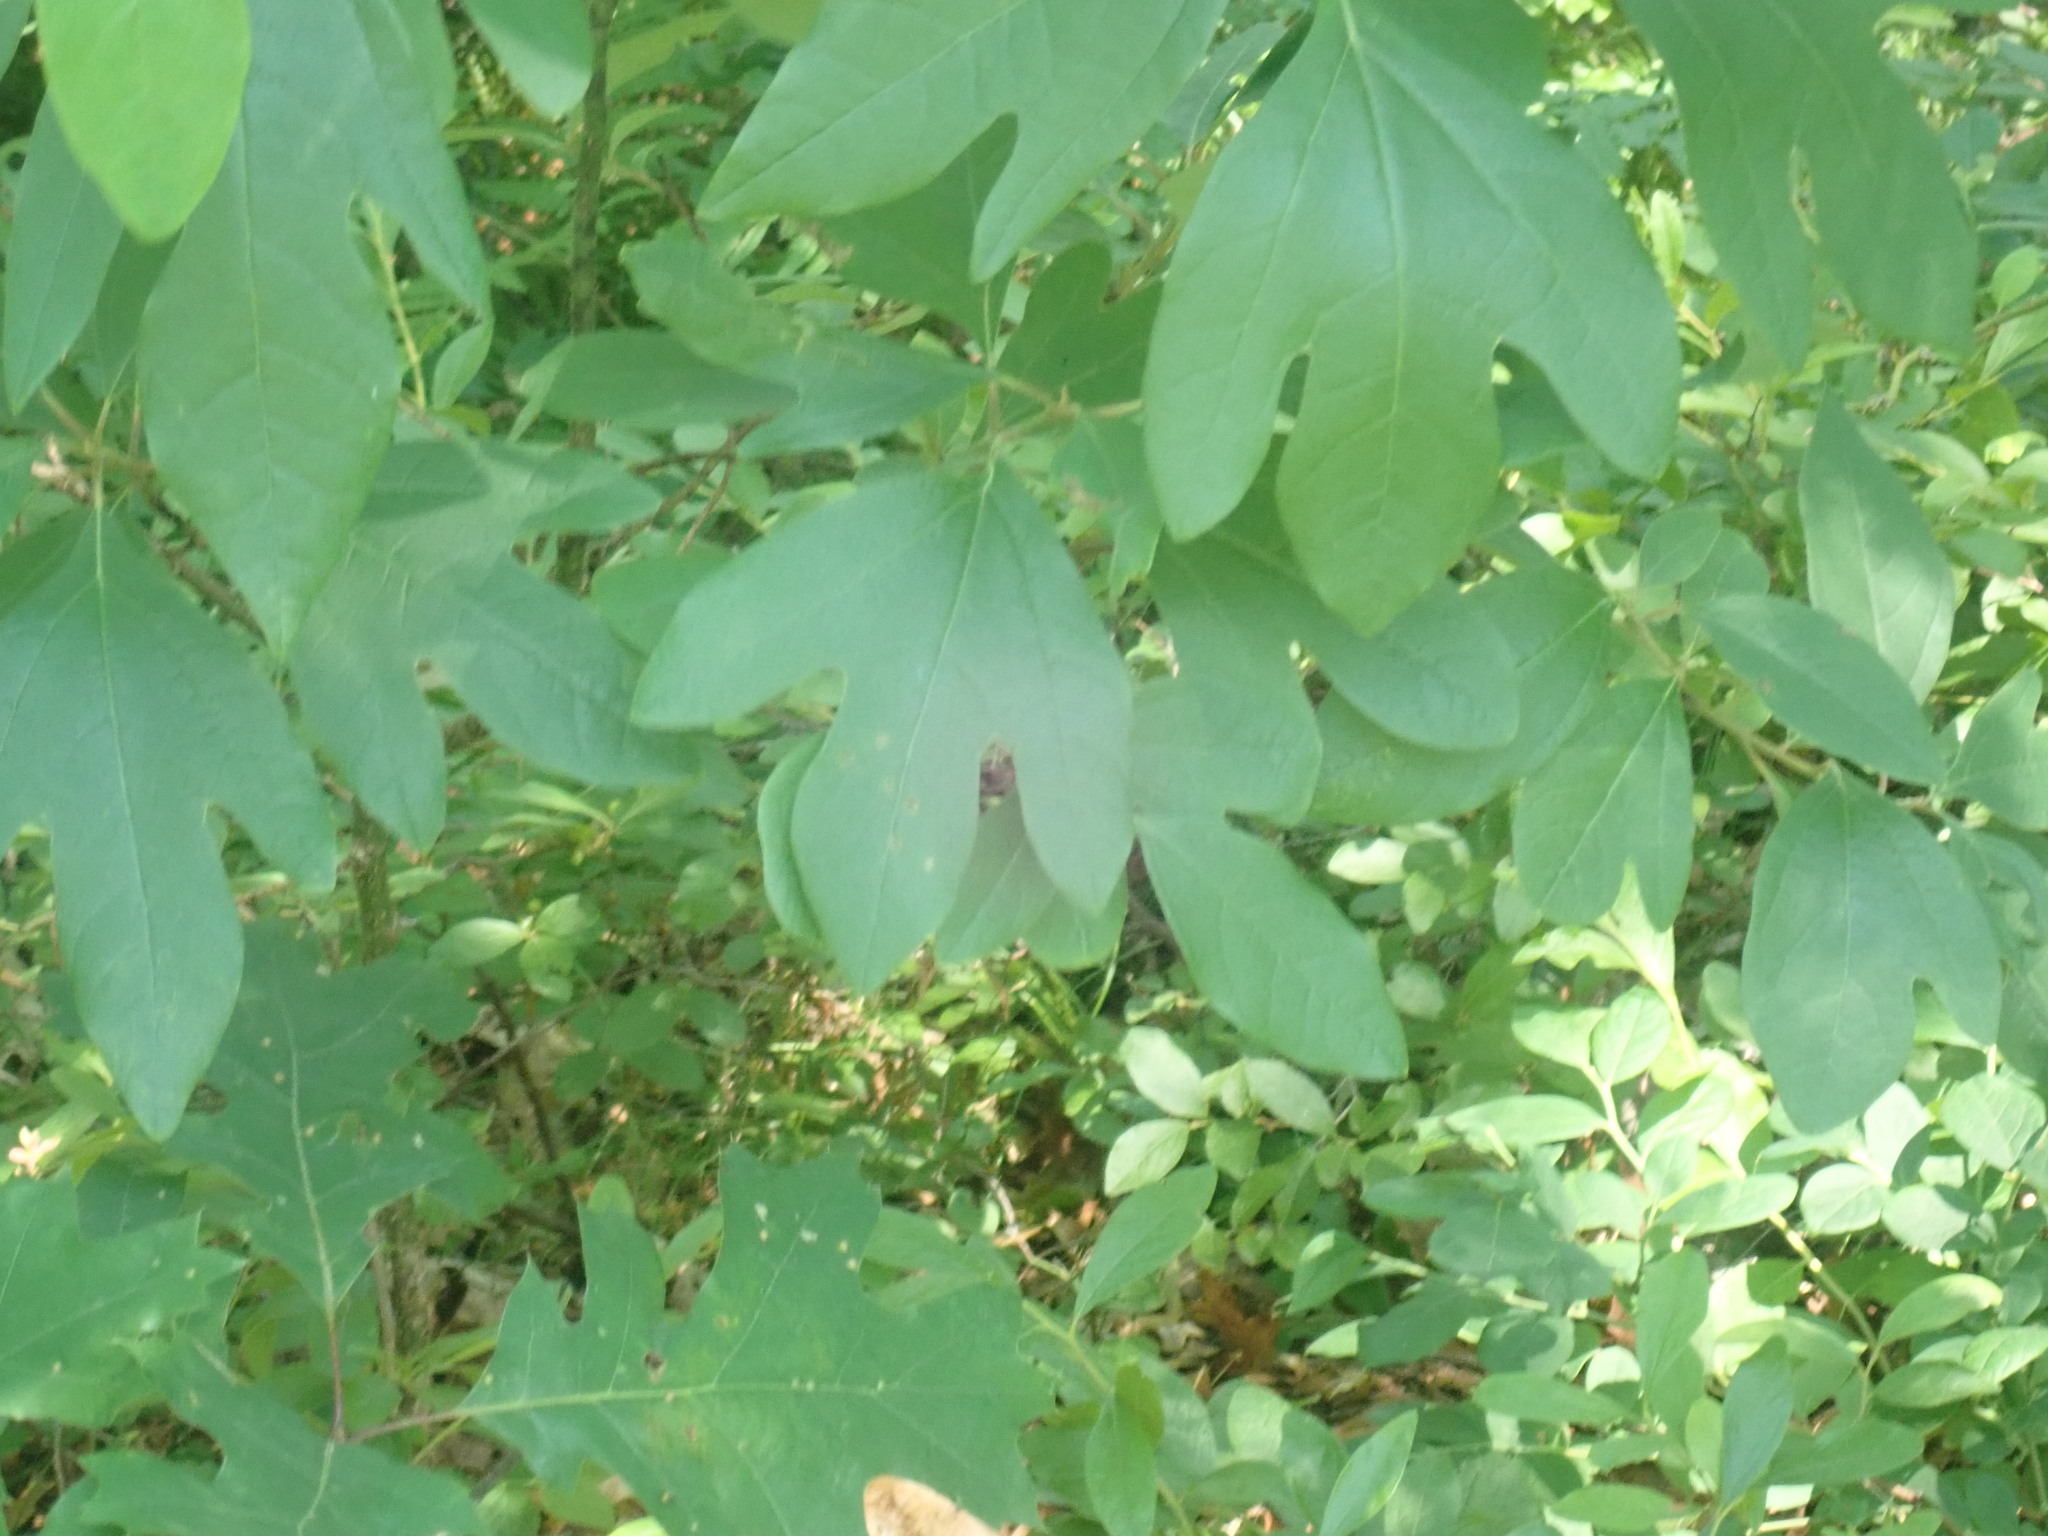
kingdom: Plantae
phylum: Tracheophyta
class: Magnoliopsida
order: Laurales
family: Lauraceae
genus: Sassafras
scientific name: Sassafras albidum
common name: Sassafras
